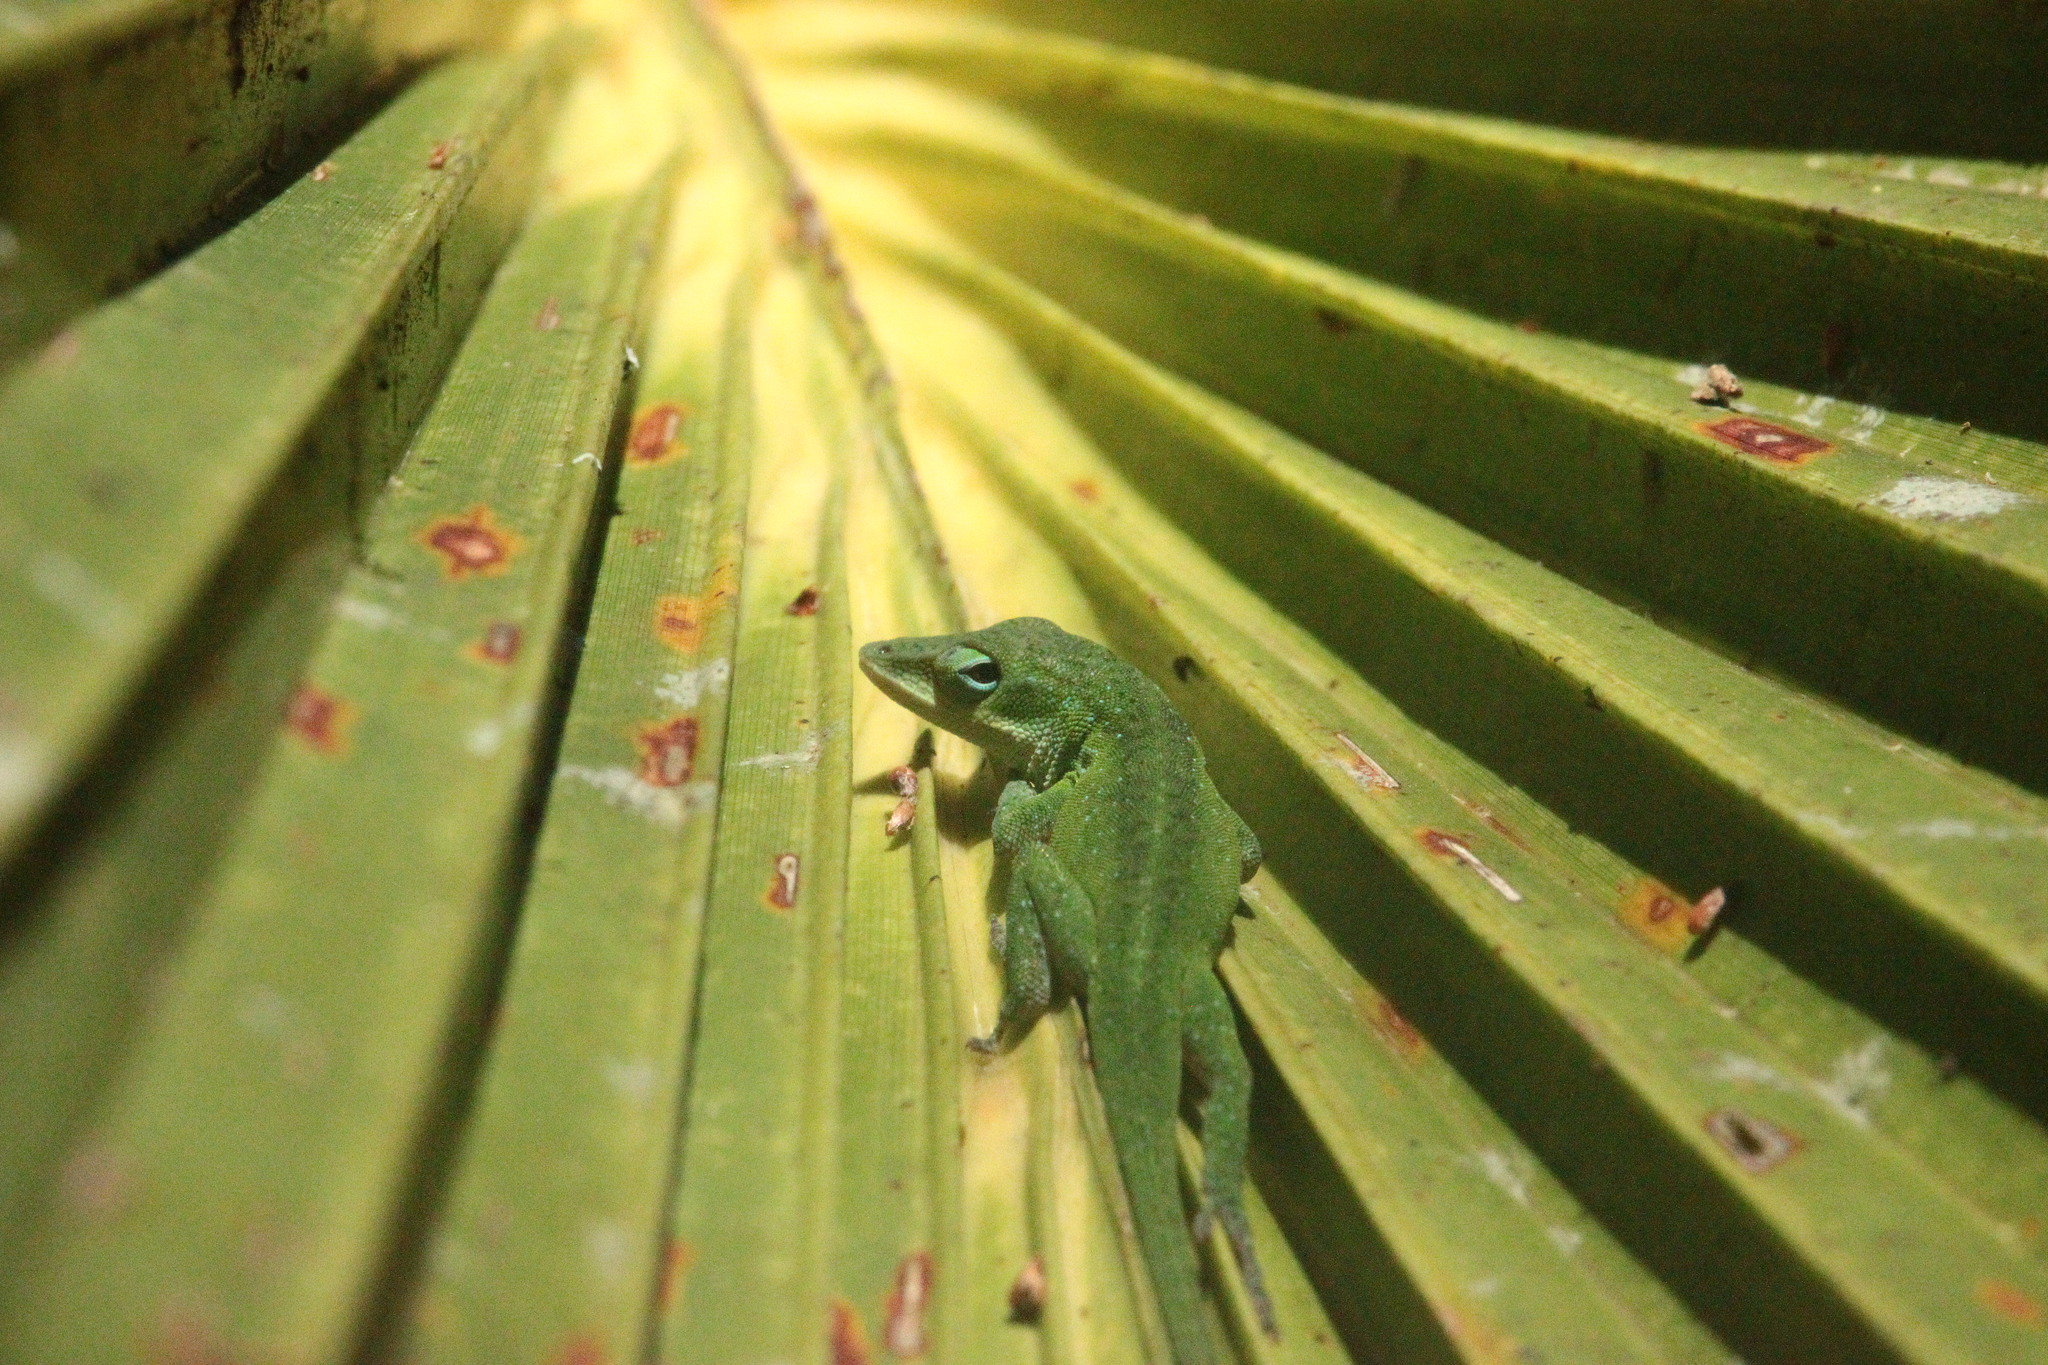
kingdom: Animalia
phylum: Chordata
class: Squamata
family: Dactyloidae
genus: Anolis
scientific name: Anolis carolinensis
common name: Green anole
